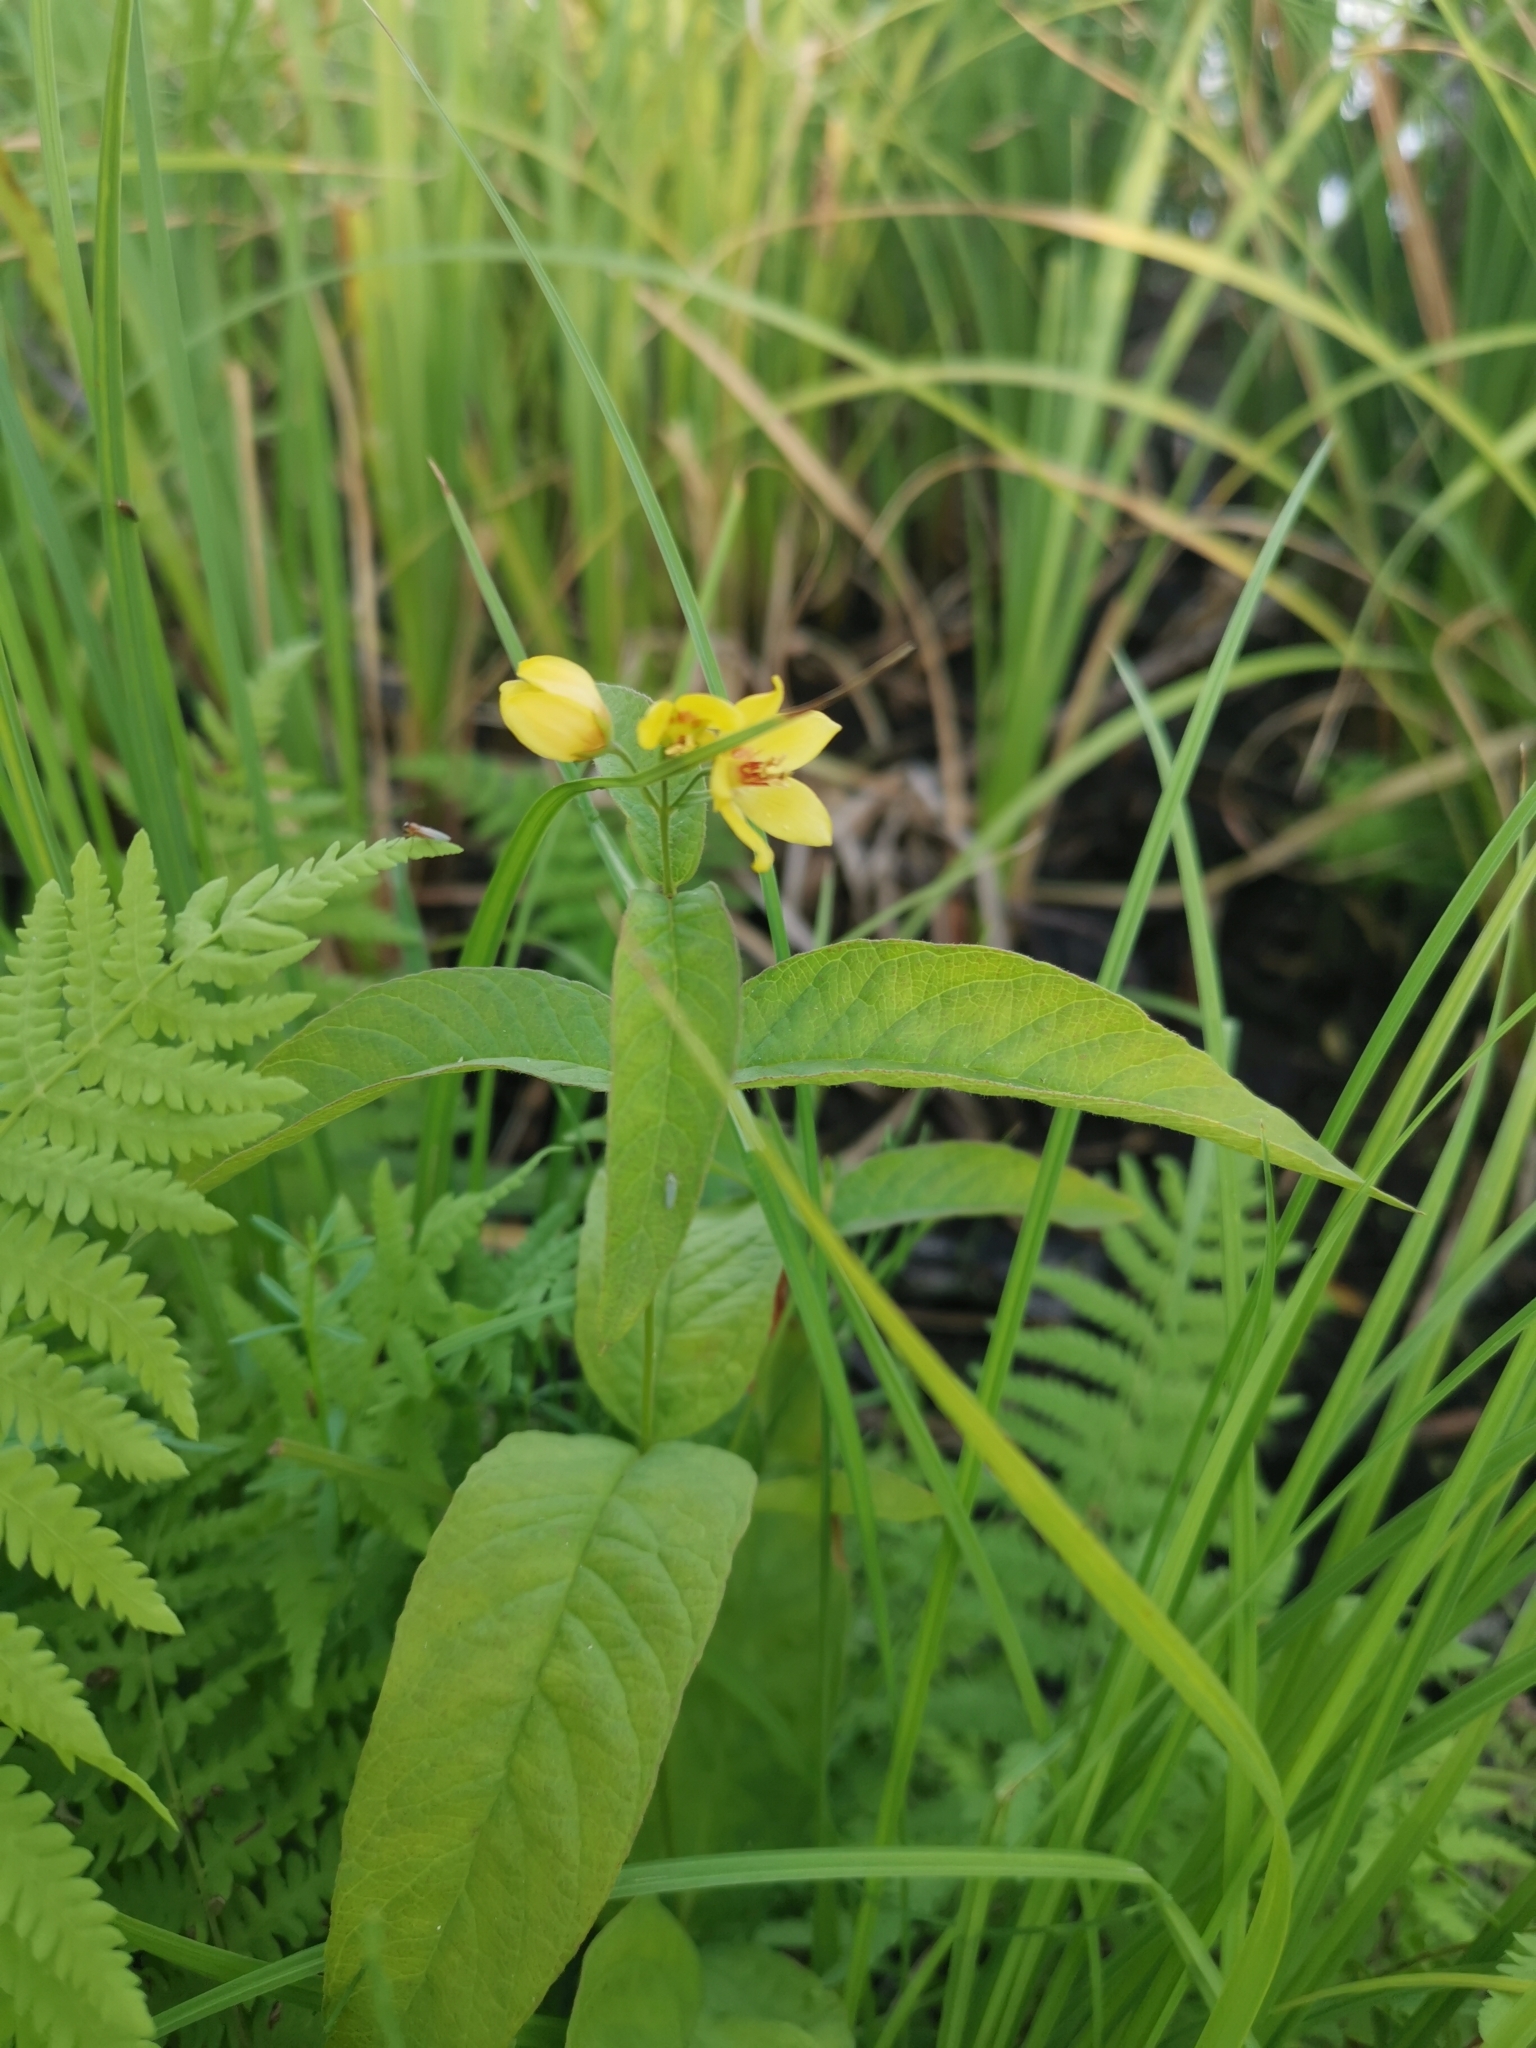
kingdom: Plantae
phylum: Tracheophyta
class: Magnoliopsida
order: Ericales
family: Primulaceae
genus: Lysimachia
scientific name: Lysimachia vulgaris
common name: Yellow loosestrife
